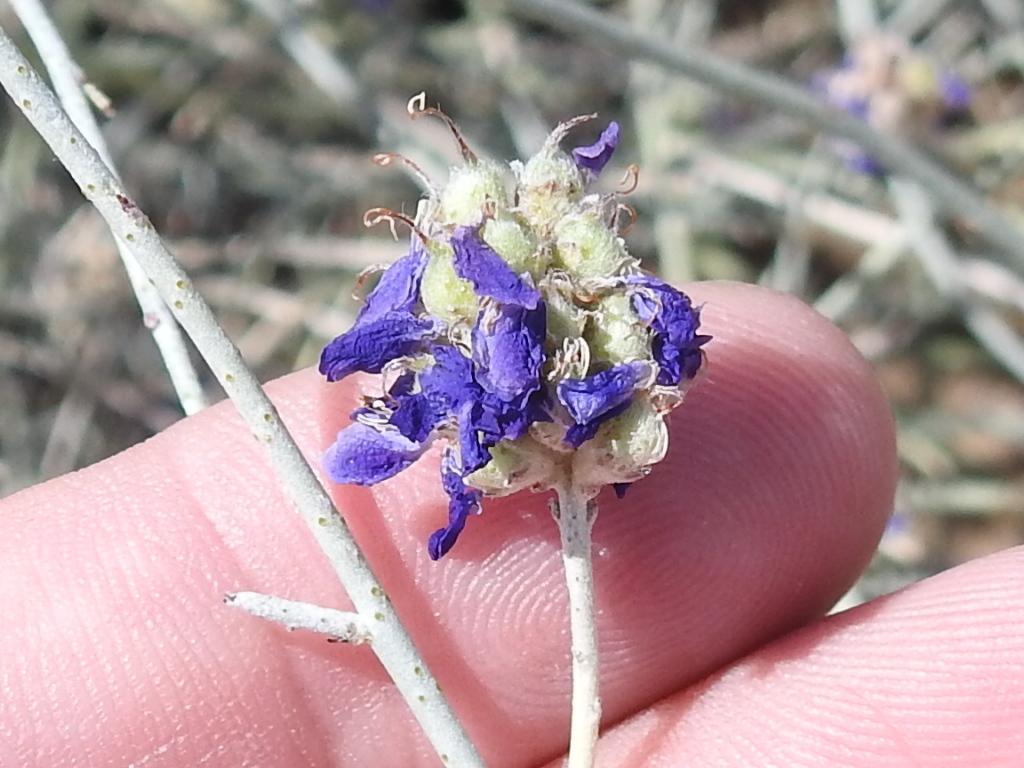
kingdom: Plantae
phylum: Tracheophyta
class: Magnoliopsida
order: Fabales
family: Fabaceae
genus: Psorothamnus
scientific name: Psorothamnus scoparius
